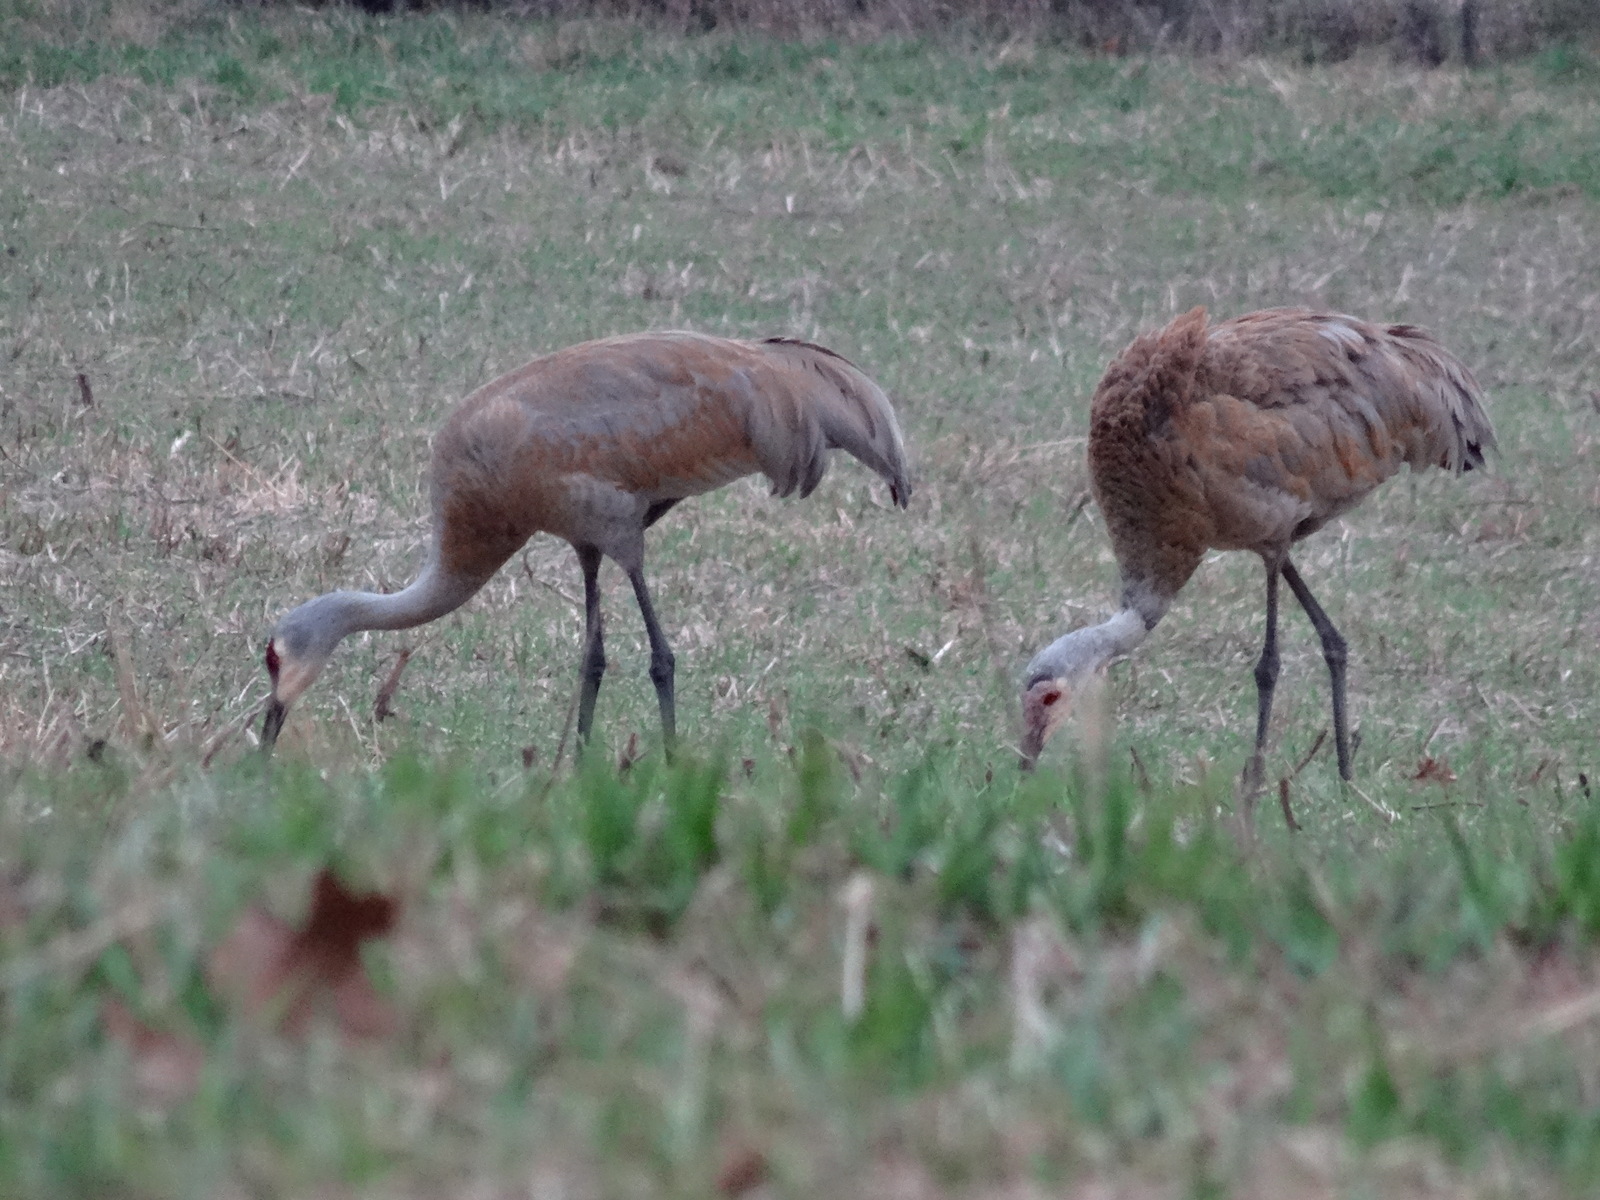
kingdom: Animalia
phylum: Chordata
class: Aves
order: Gruiformes
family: Gruidae
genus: Grus
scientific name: Grus canadensis
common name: Sandhill crane
